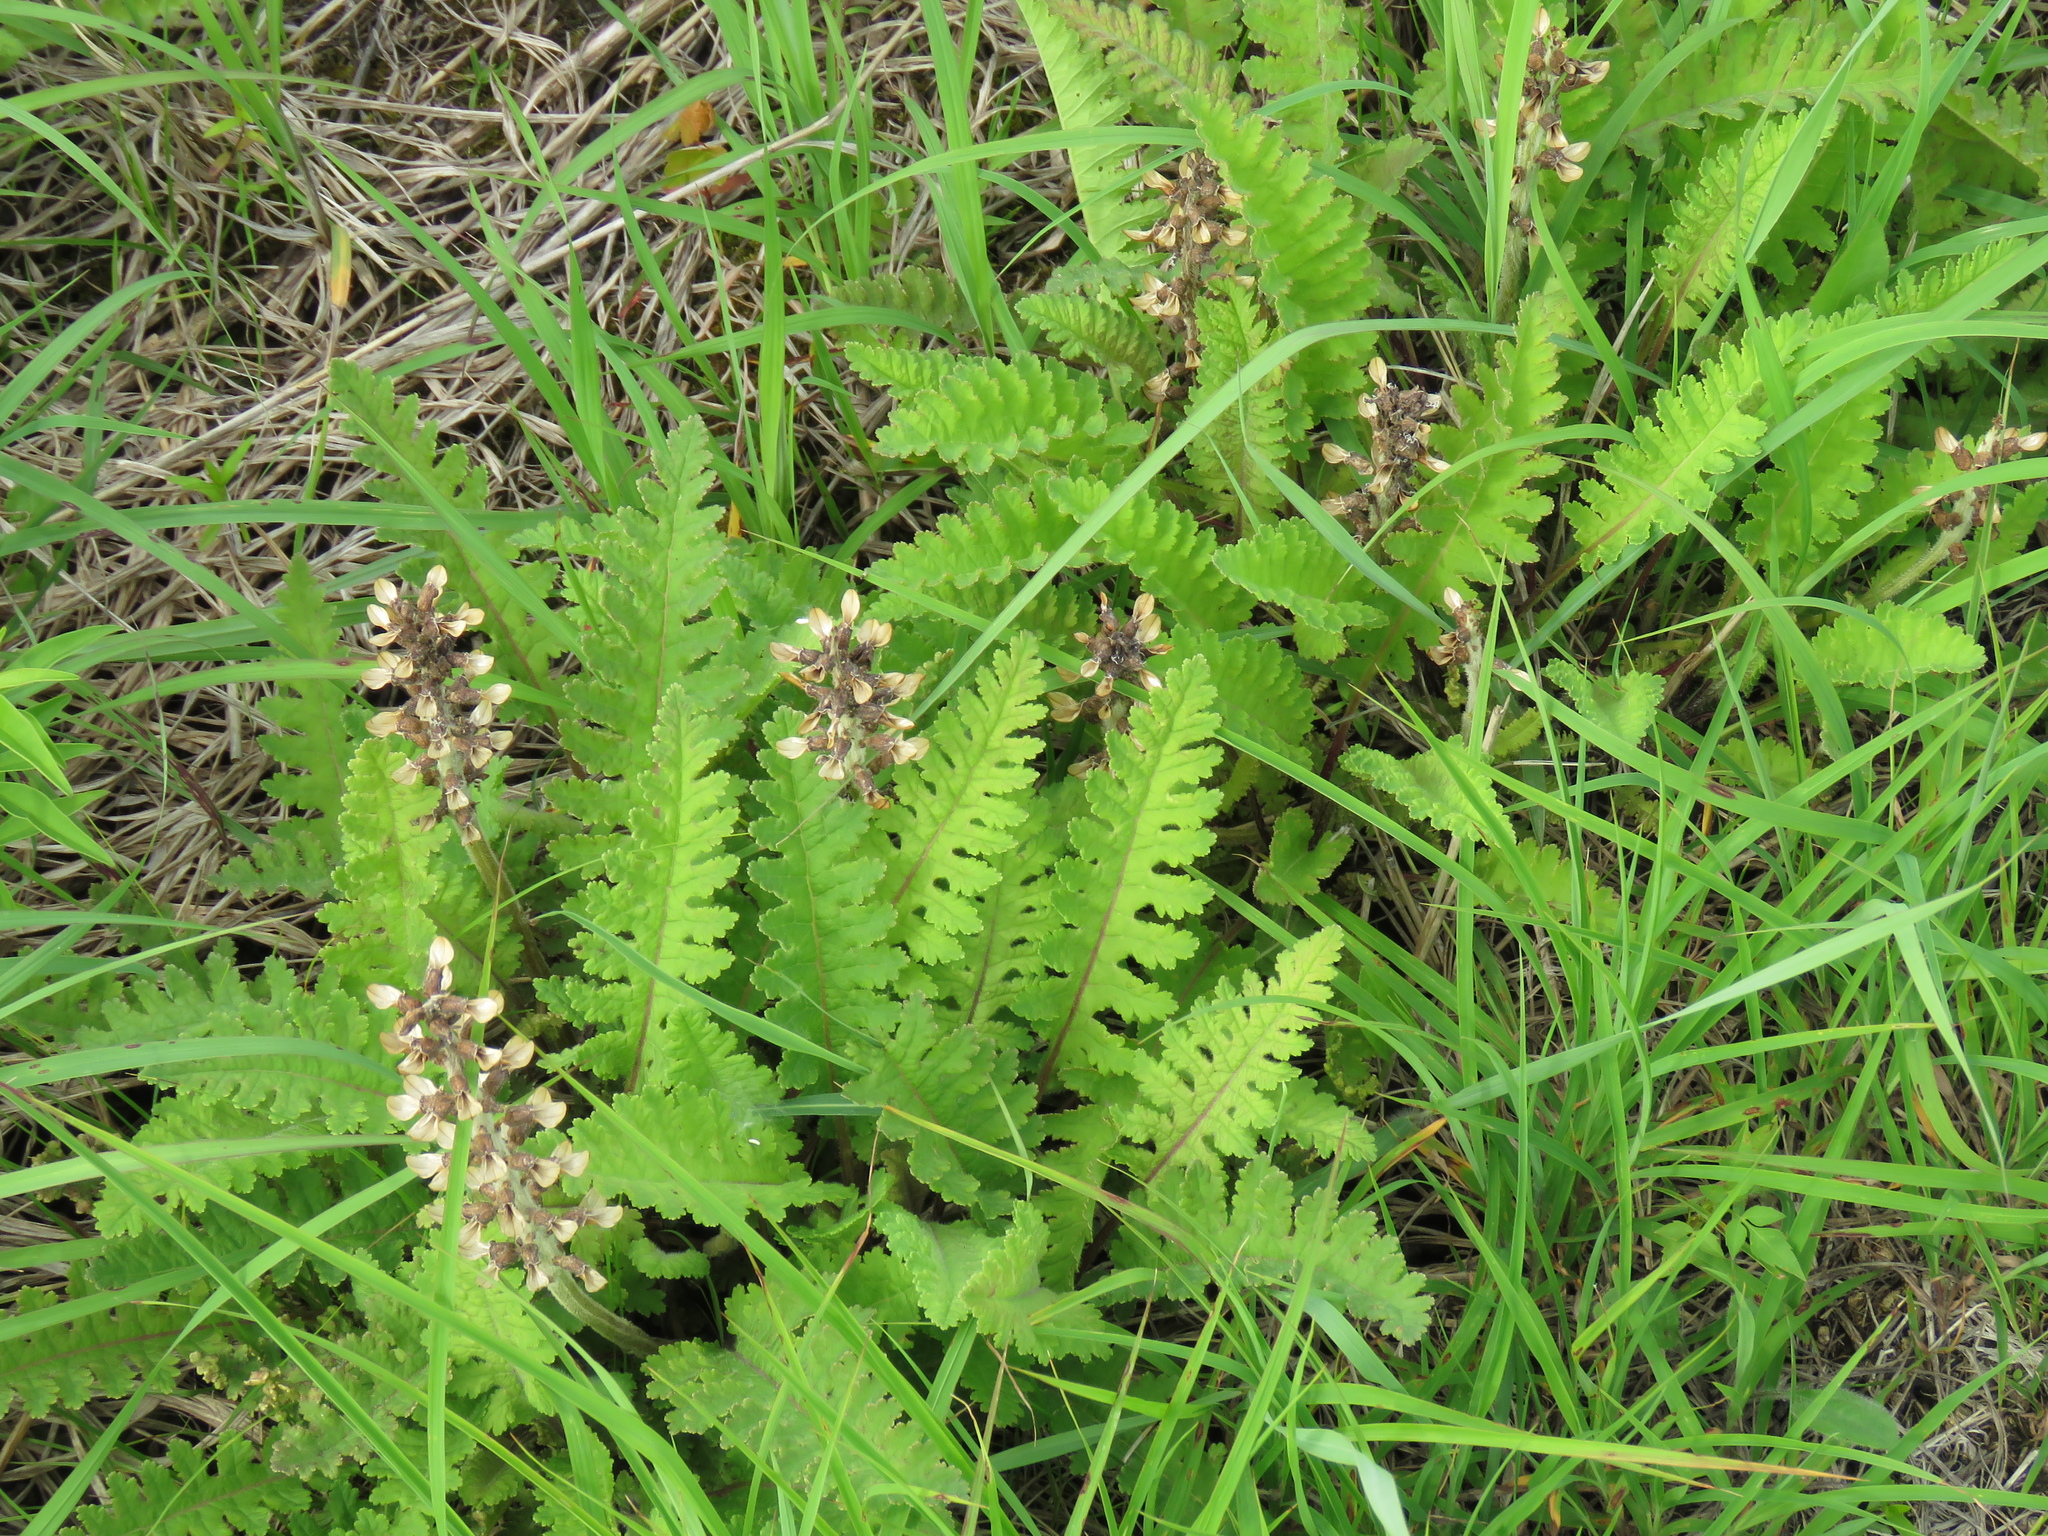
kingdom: Plantae
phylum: Tracheophyta
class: Magnoliopsida
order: Lamiales
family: Orobanchaceae
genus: Pedicularis
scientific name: Pedicularis canadensis
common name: Early lousewort
